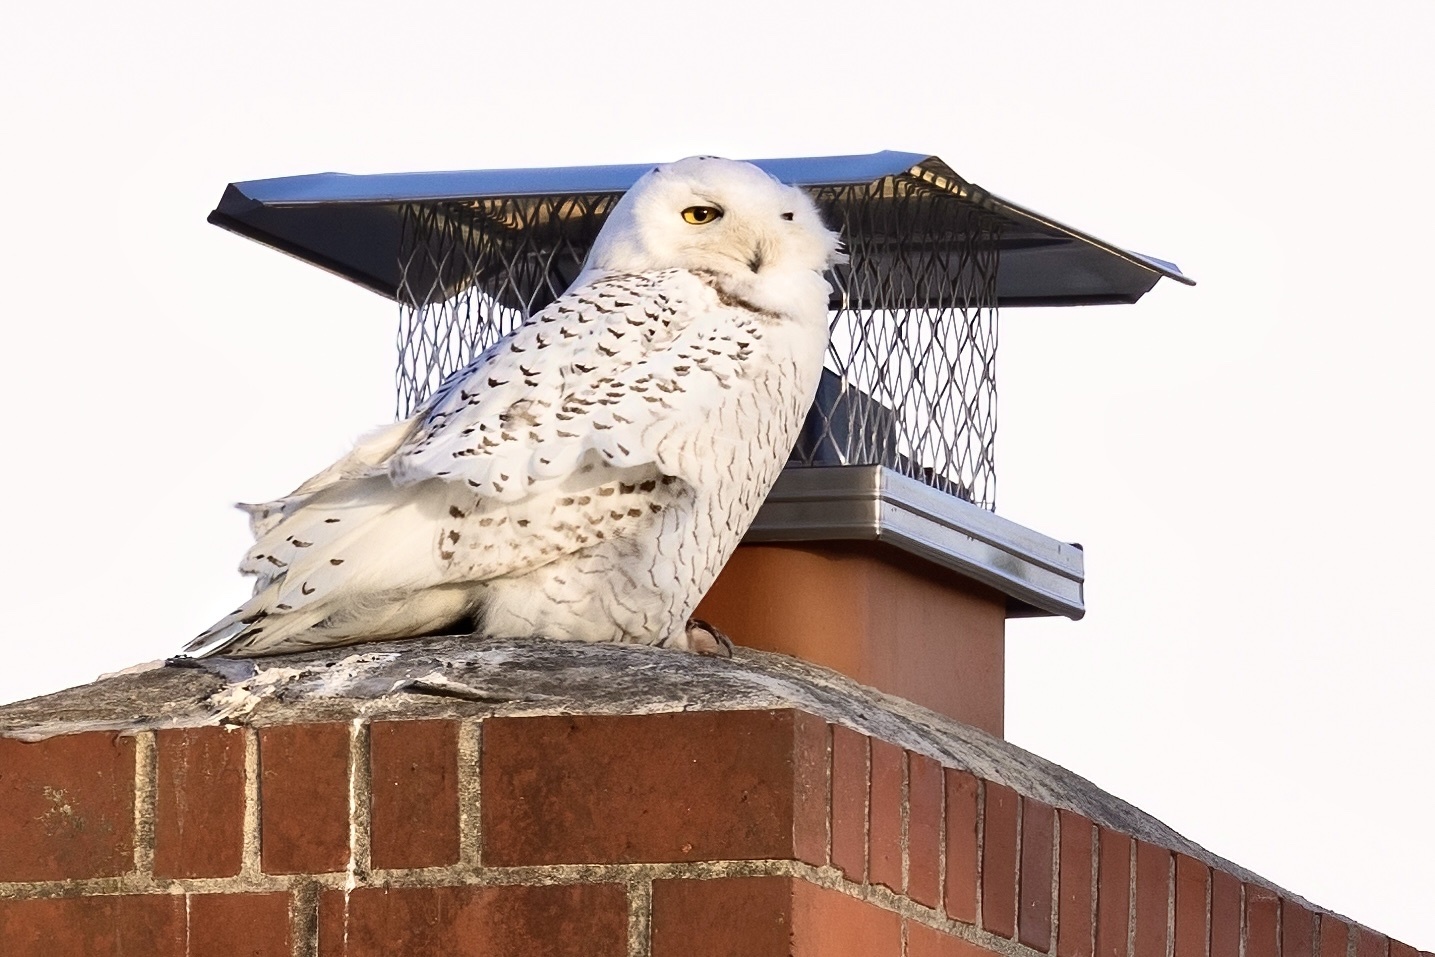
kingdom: Animalia
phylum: Chordata
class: Aves
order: Strigiformes
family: Strigidae
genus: Bubo
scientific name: Bubo scandiacus
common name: Snowy owl
